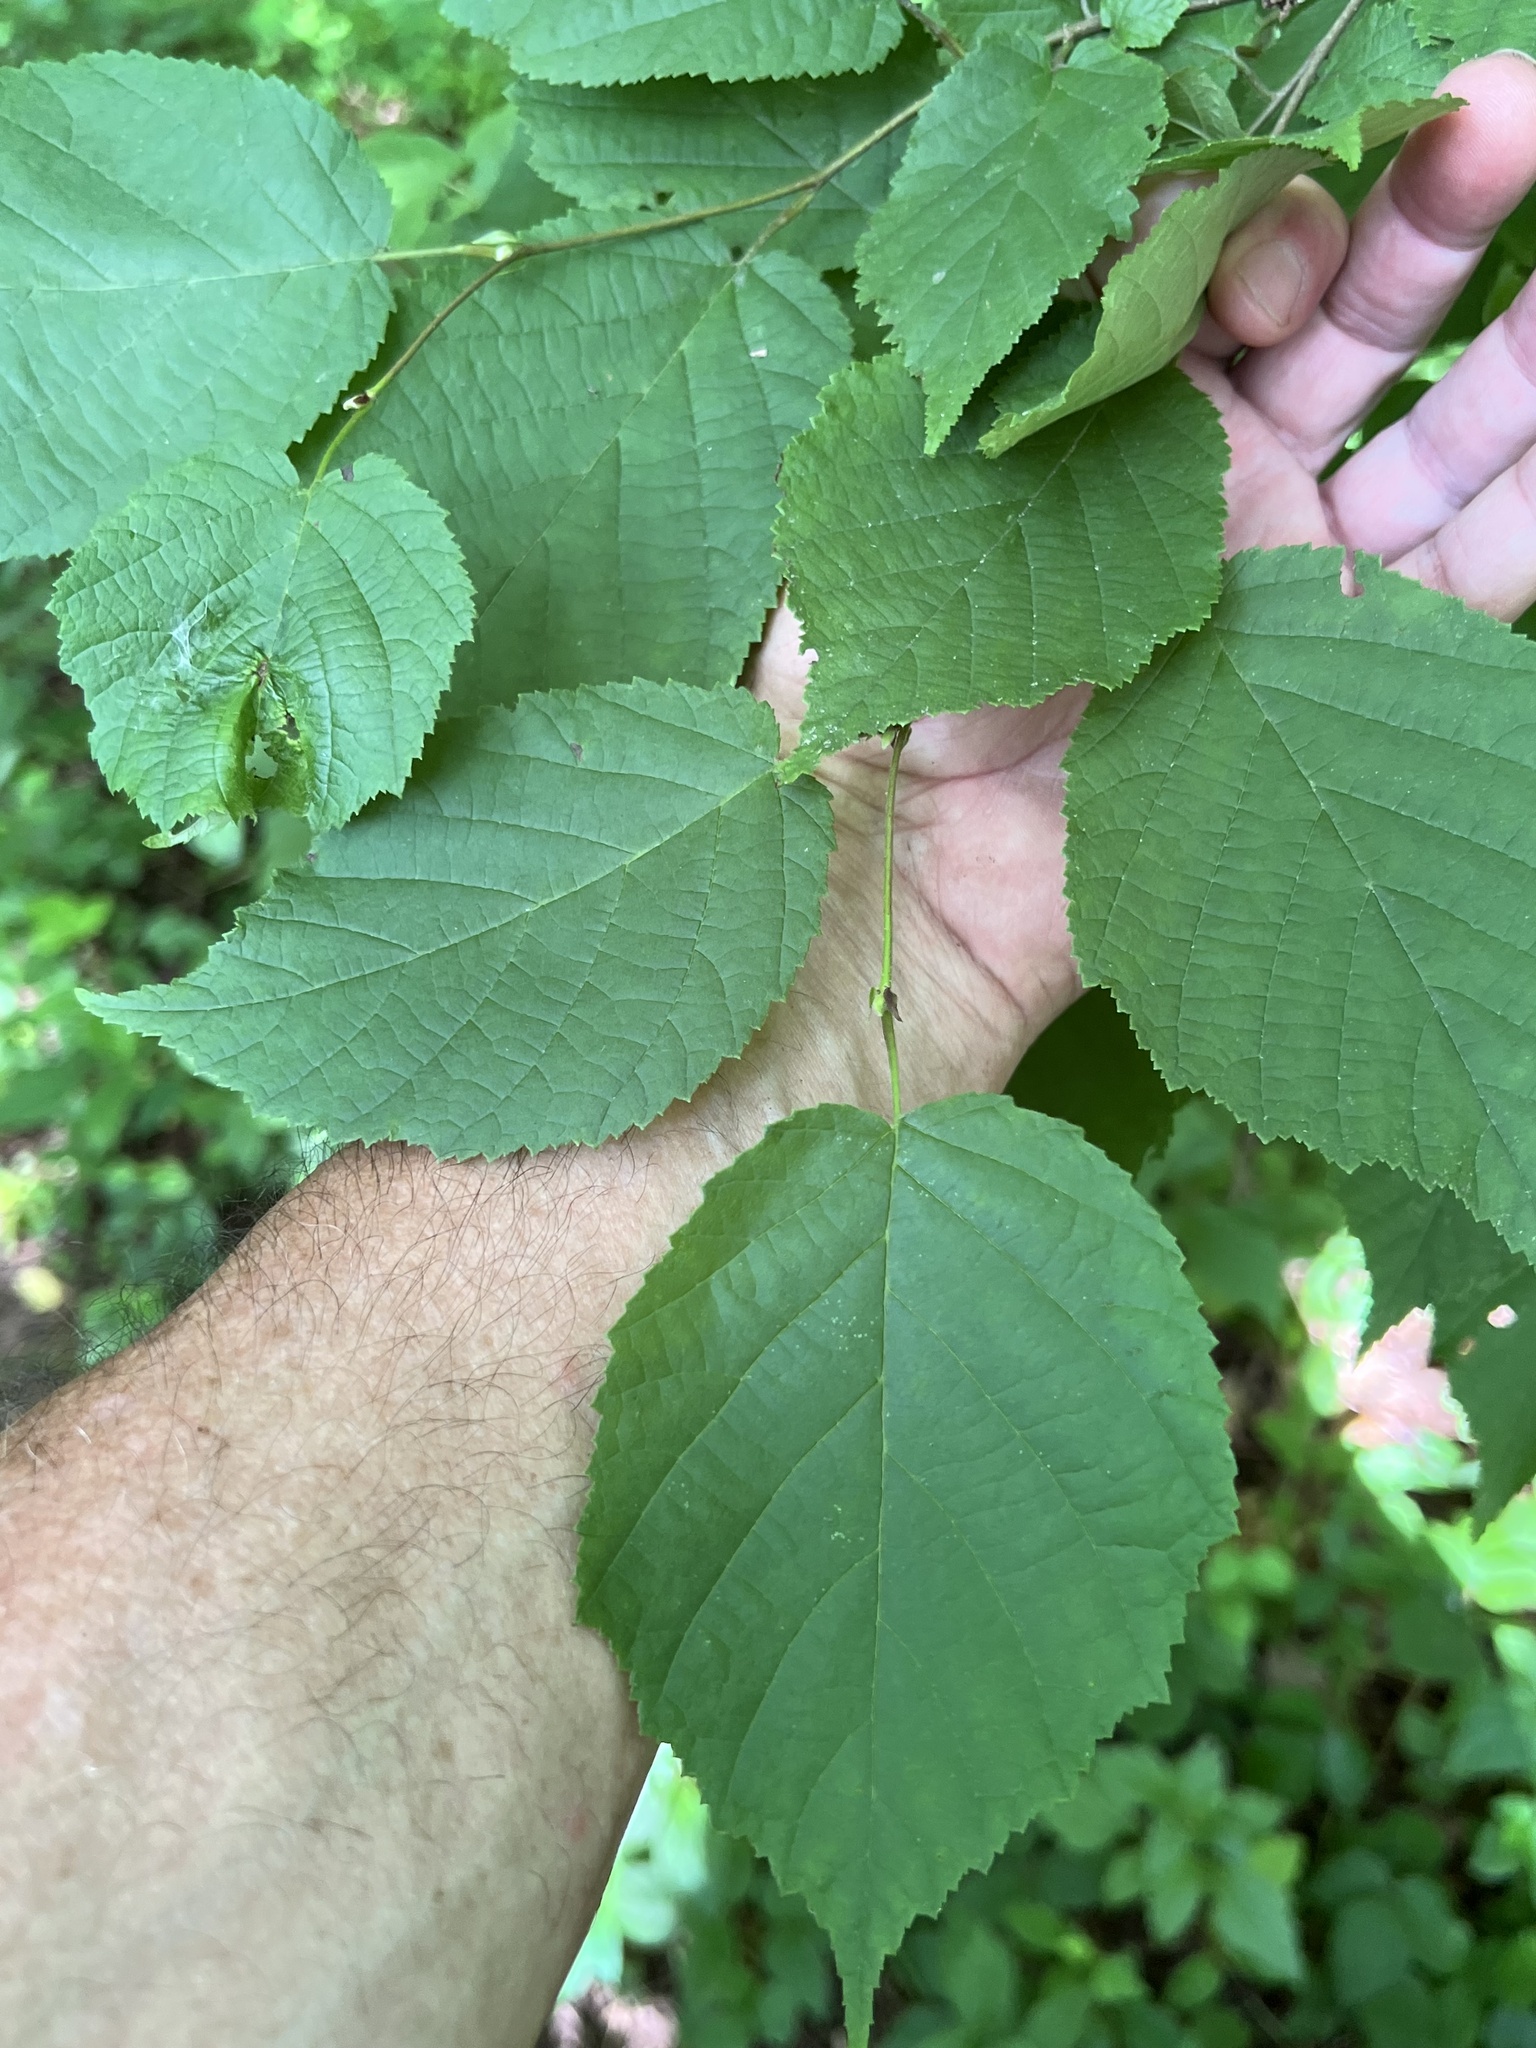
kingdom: Animalia
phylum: Arthropoda
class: Insecta
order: Lepidoptera
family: Gracillariidae
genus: Cameraria
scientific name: Cameraria corylisella
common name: Hazel blotchminer
